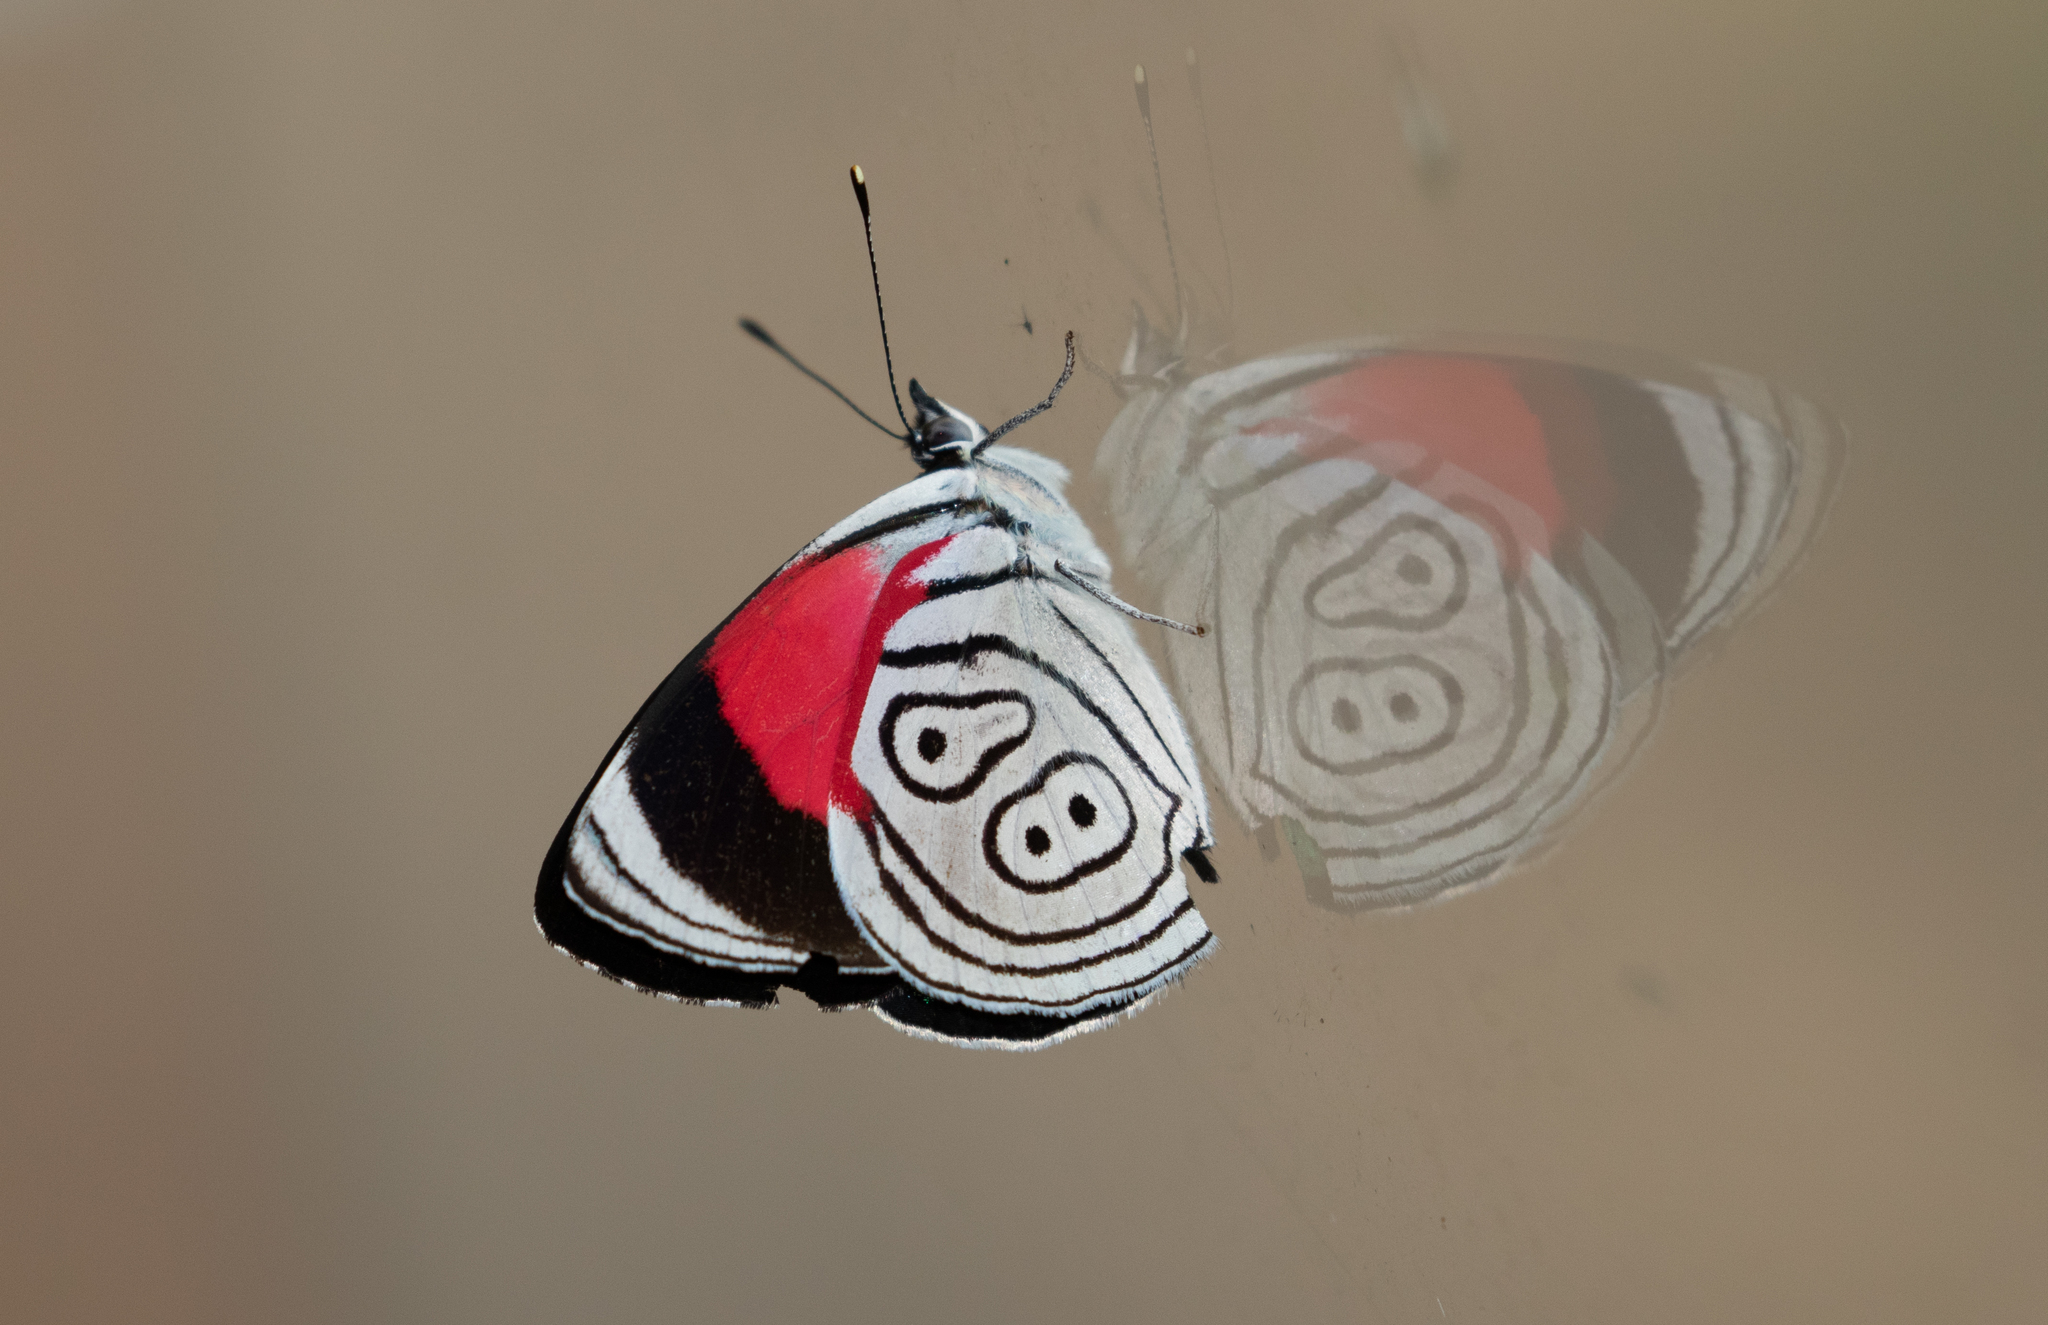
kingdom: Animalia
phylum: Arthropoda
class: Insecta
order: Lepidoptera
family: Nymphalidae
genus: Diaethria
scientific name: Diaethria clymena
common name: Widespread eighty-eight
